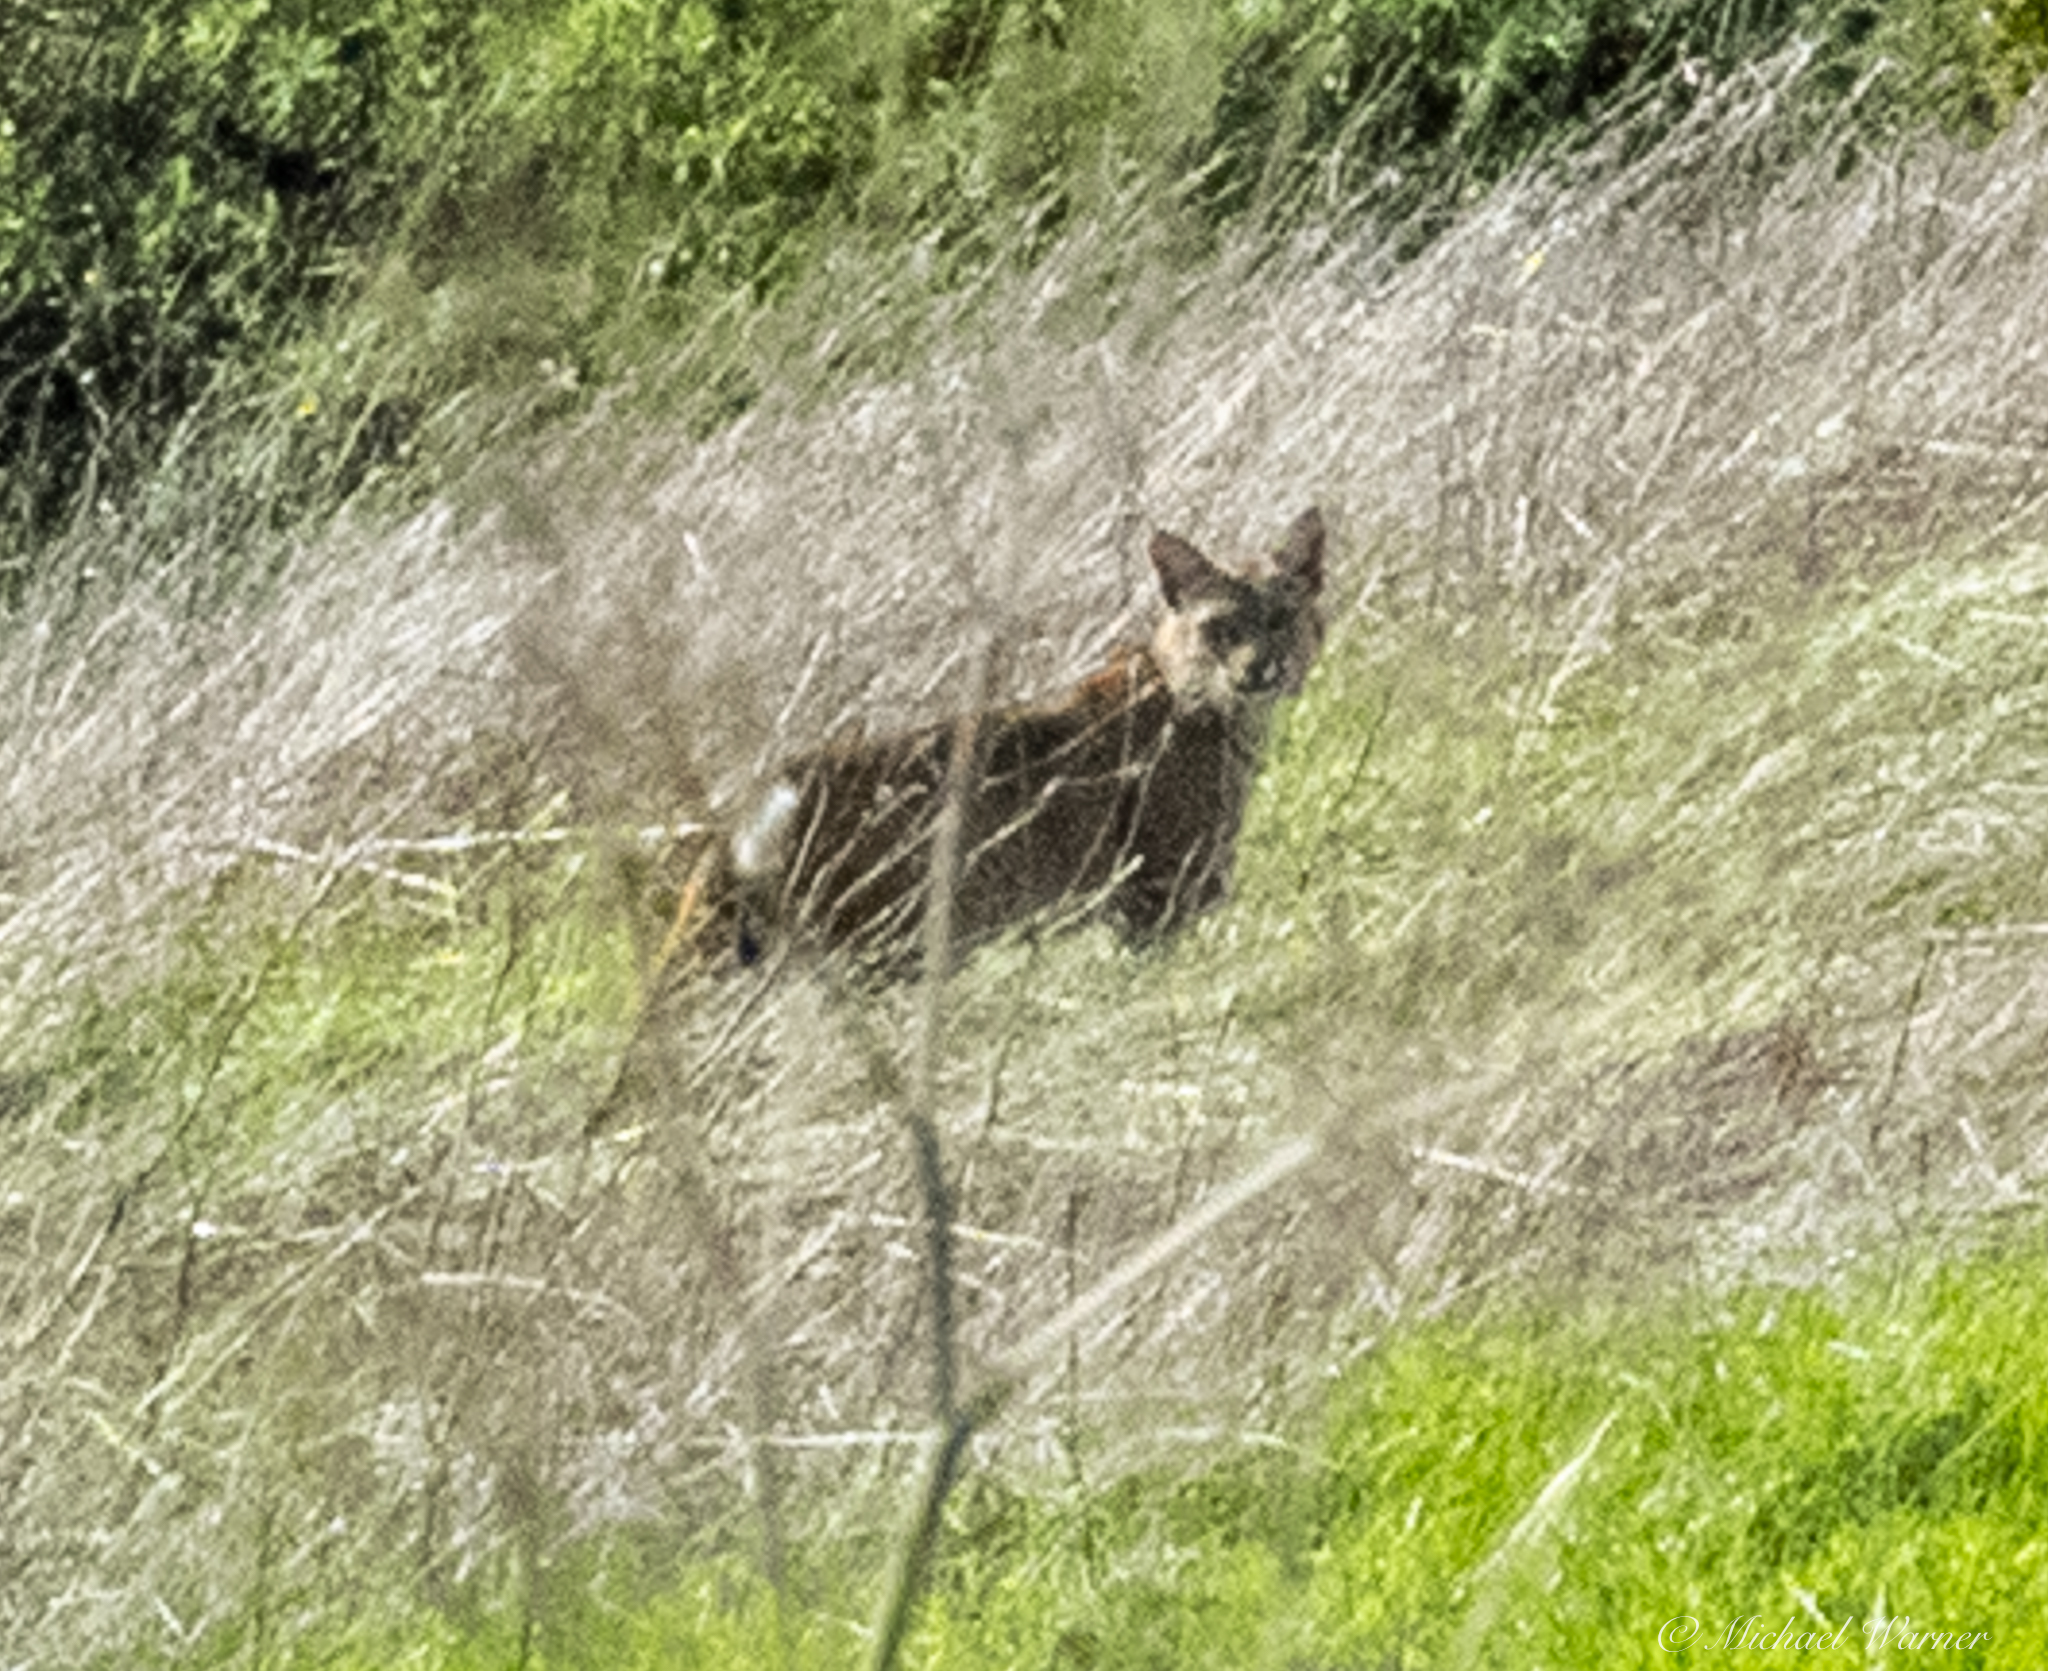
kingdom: Animalia
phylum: Chordata
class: Mammalia
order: Carnivora
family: Felidae
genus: Lynx
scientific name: Lynx rufus
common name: Bobcat
